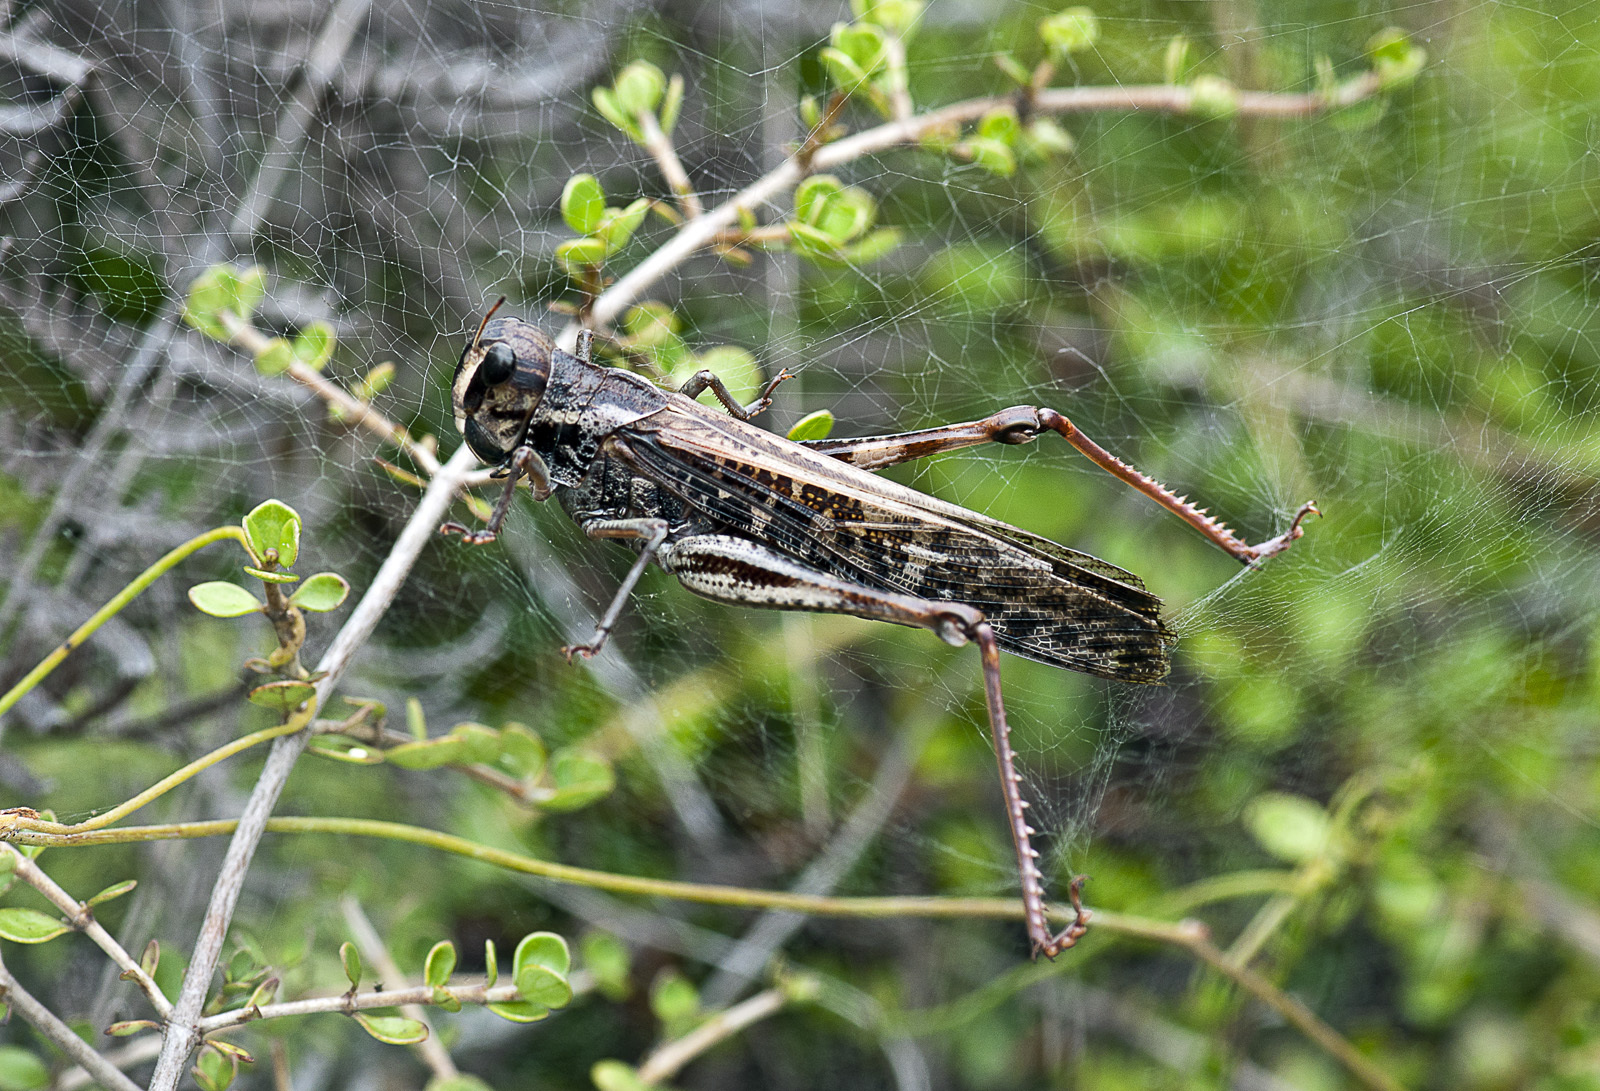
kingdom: Animalia
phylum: Arthropoda
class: Insecta
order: Orthoptera
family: Acrididae
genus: Locusta
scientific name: Locusta migratoria
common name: Migratory locust
